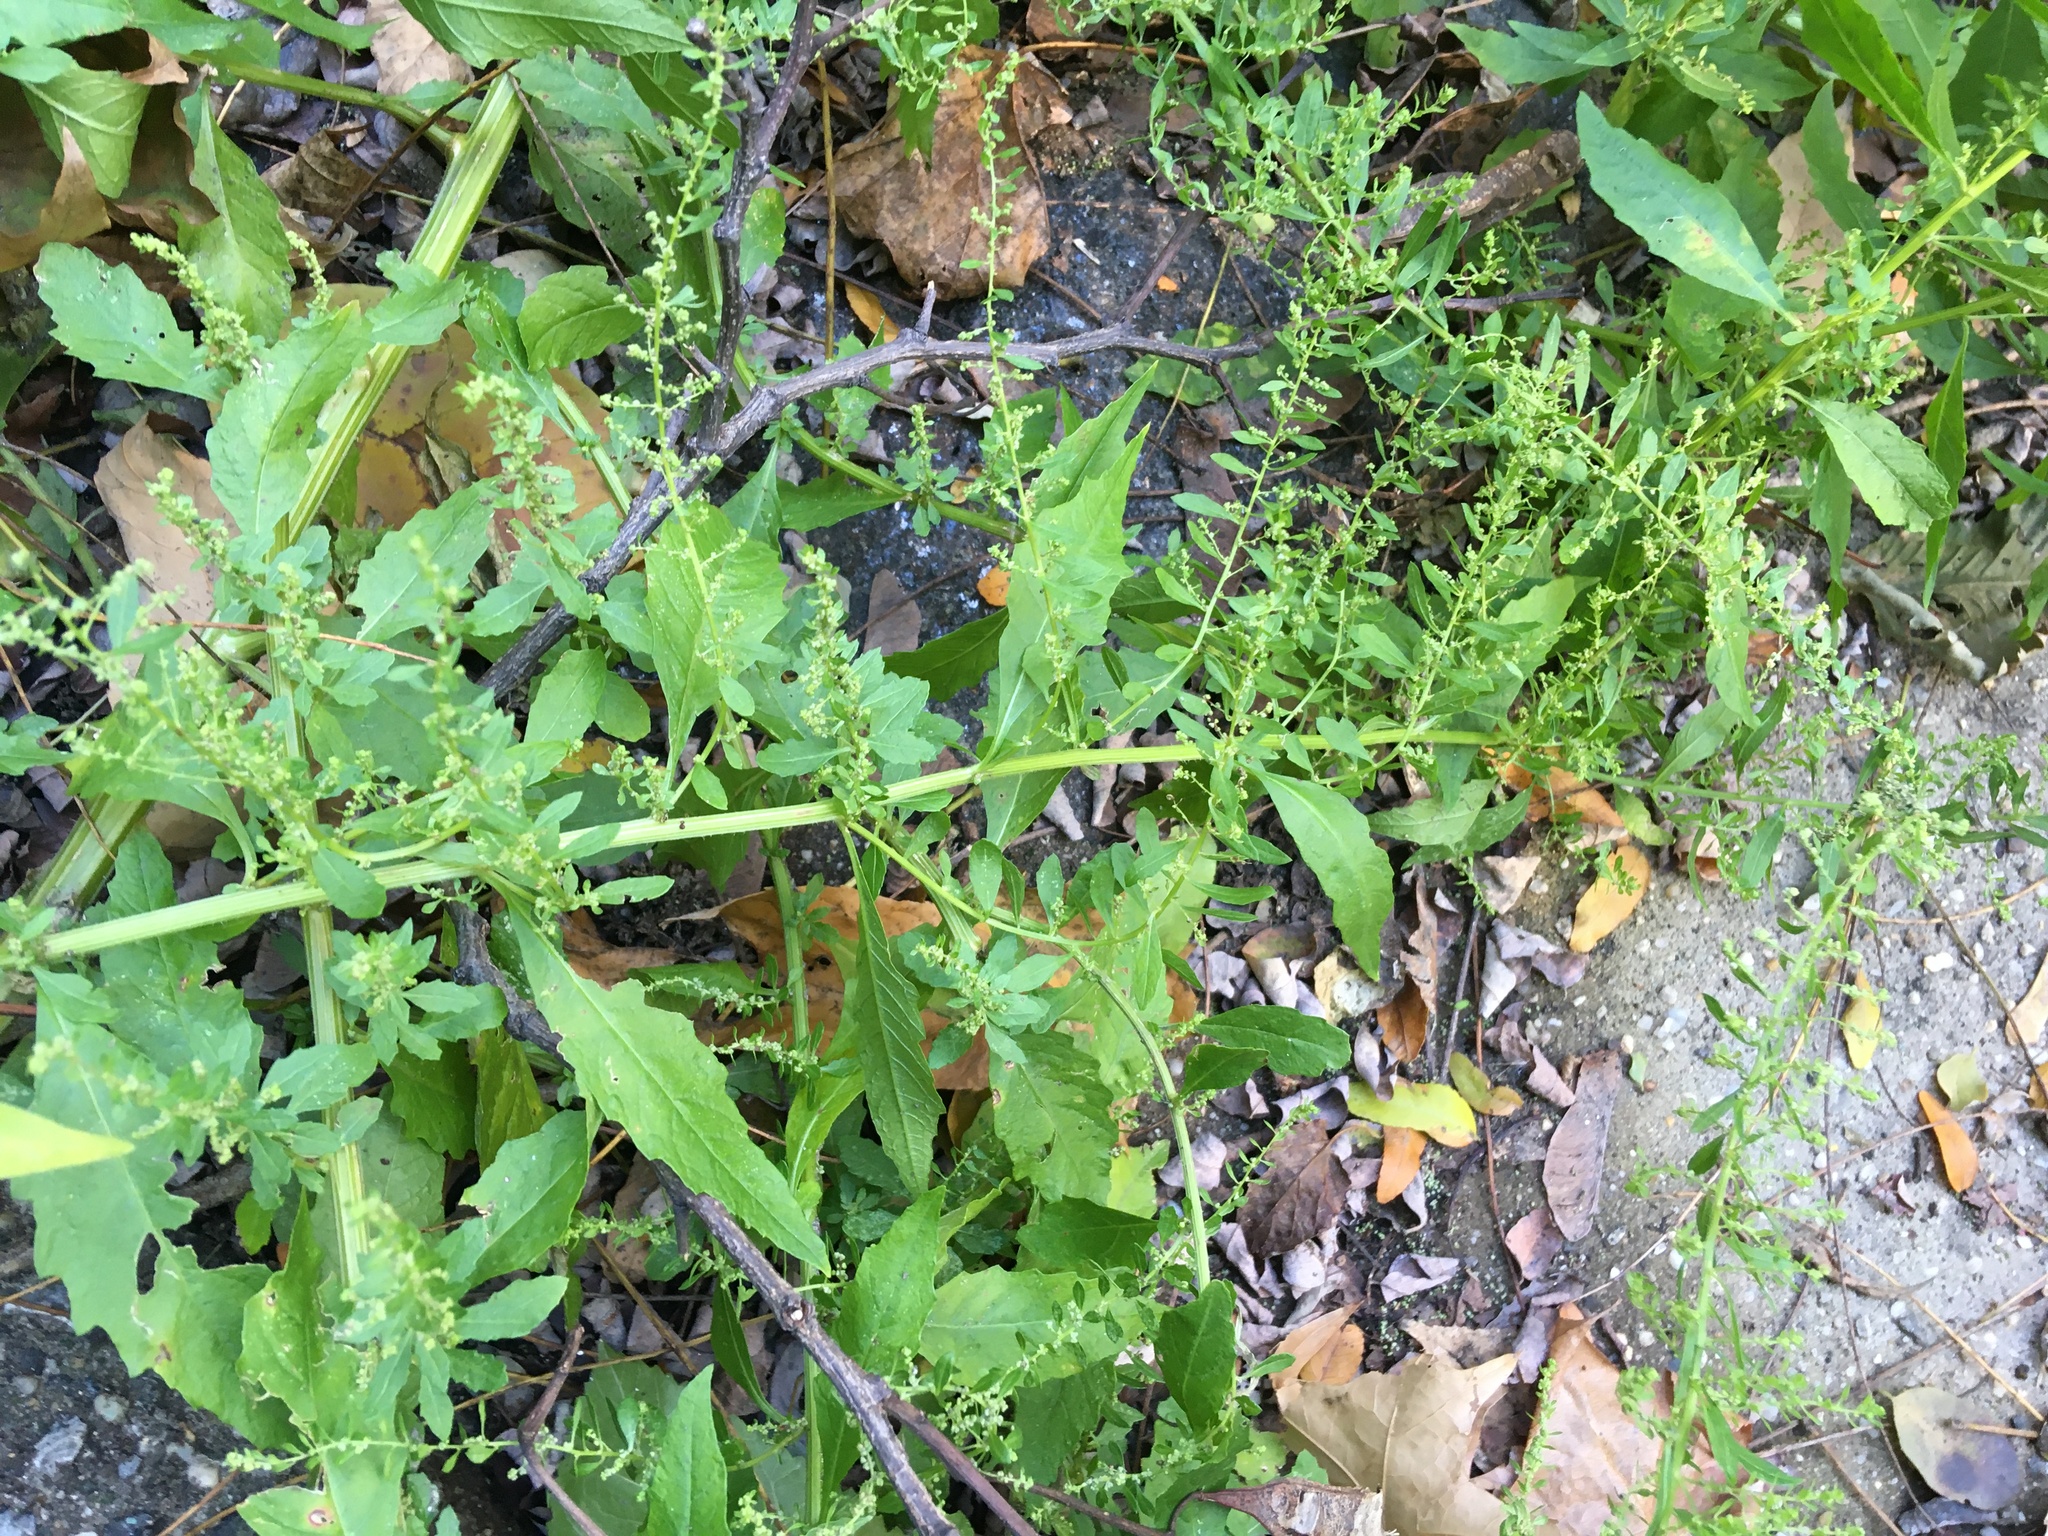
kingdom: Plantae
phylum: Tracheophyta
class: Magnoliopsida
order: Caryophyllales
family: Amaranthaceae
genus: Dysphania
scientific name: Dysphania ambrosioides
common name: Wormseed
